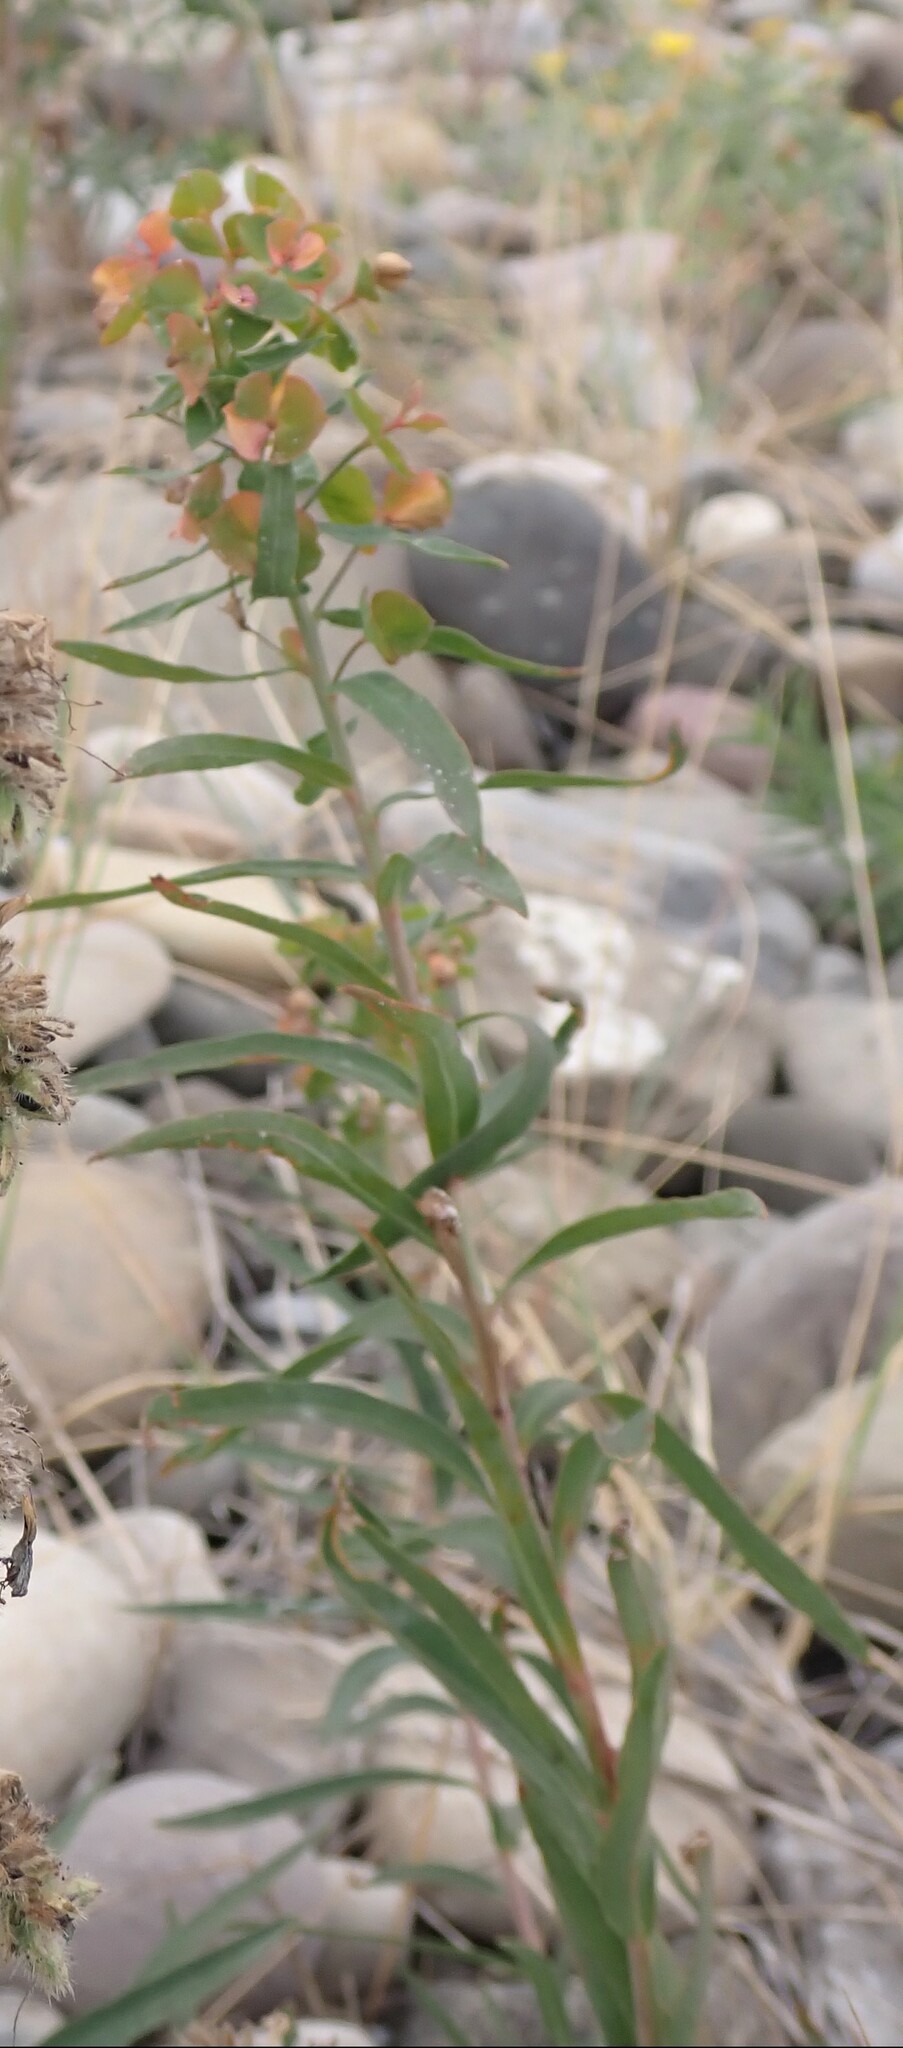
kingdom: Plantae
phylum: Tracheophyta
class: Magnoliopsida
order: Malpighiales
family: Euphorbiaceae
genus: Euphorbia
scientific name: Euphorbia virgata
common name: Leafy spurge
